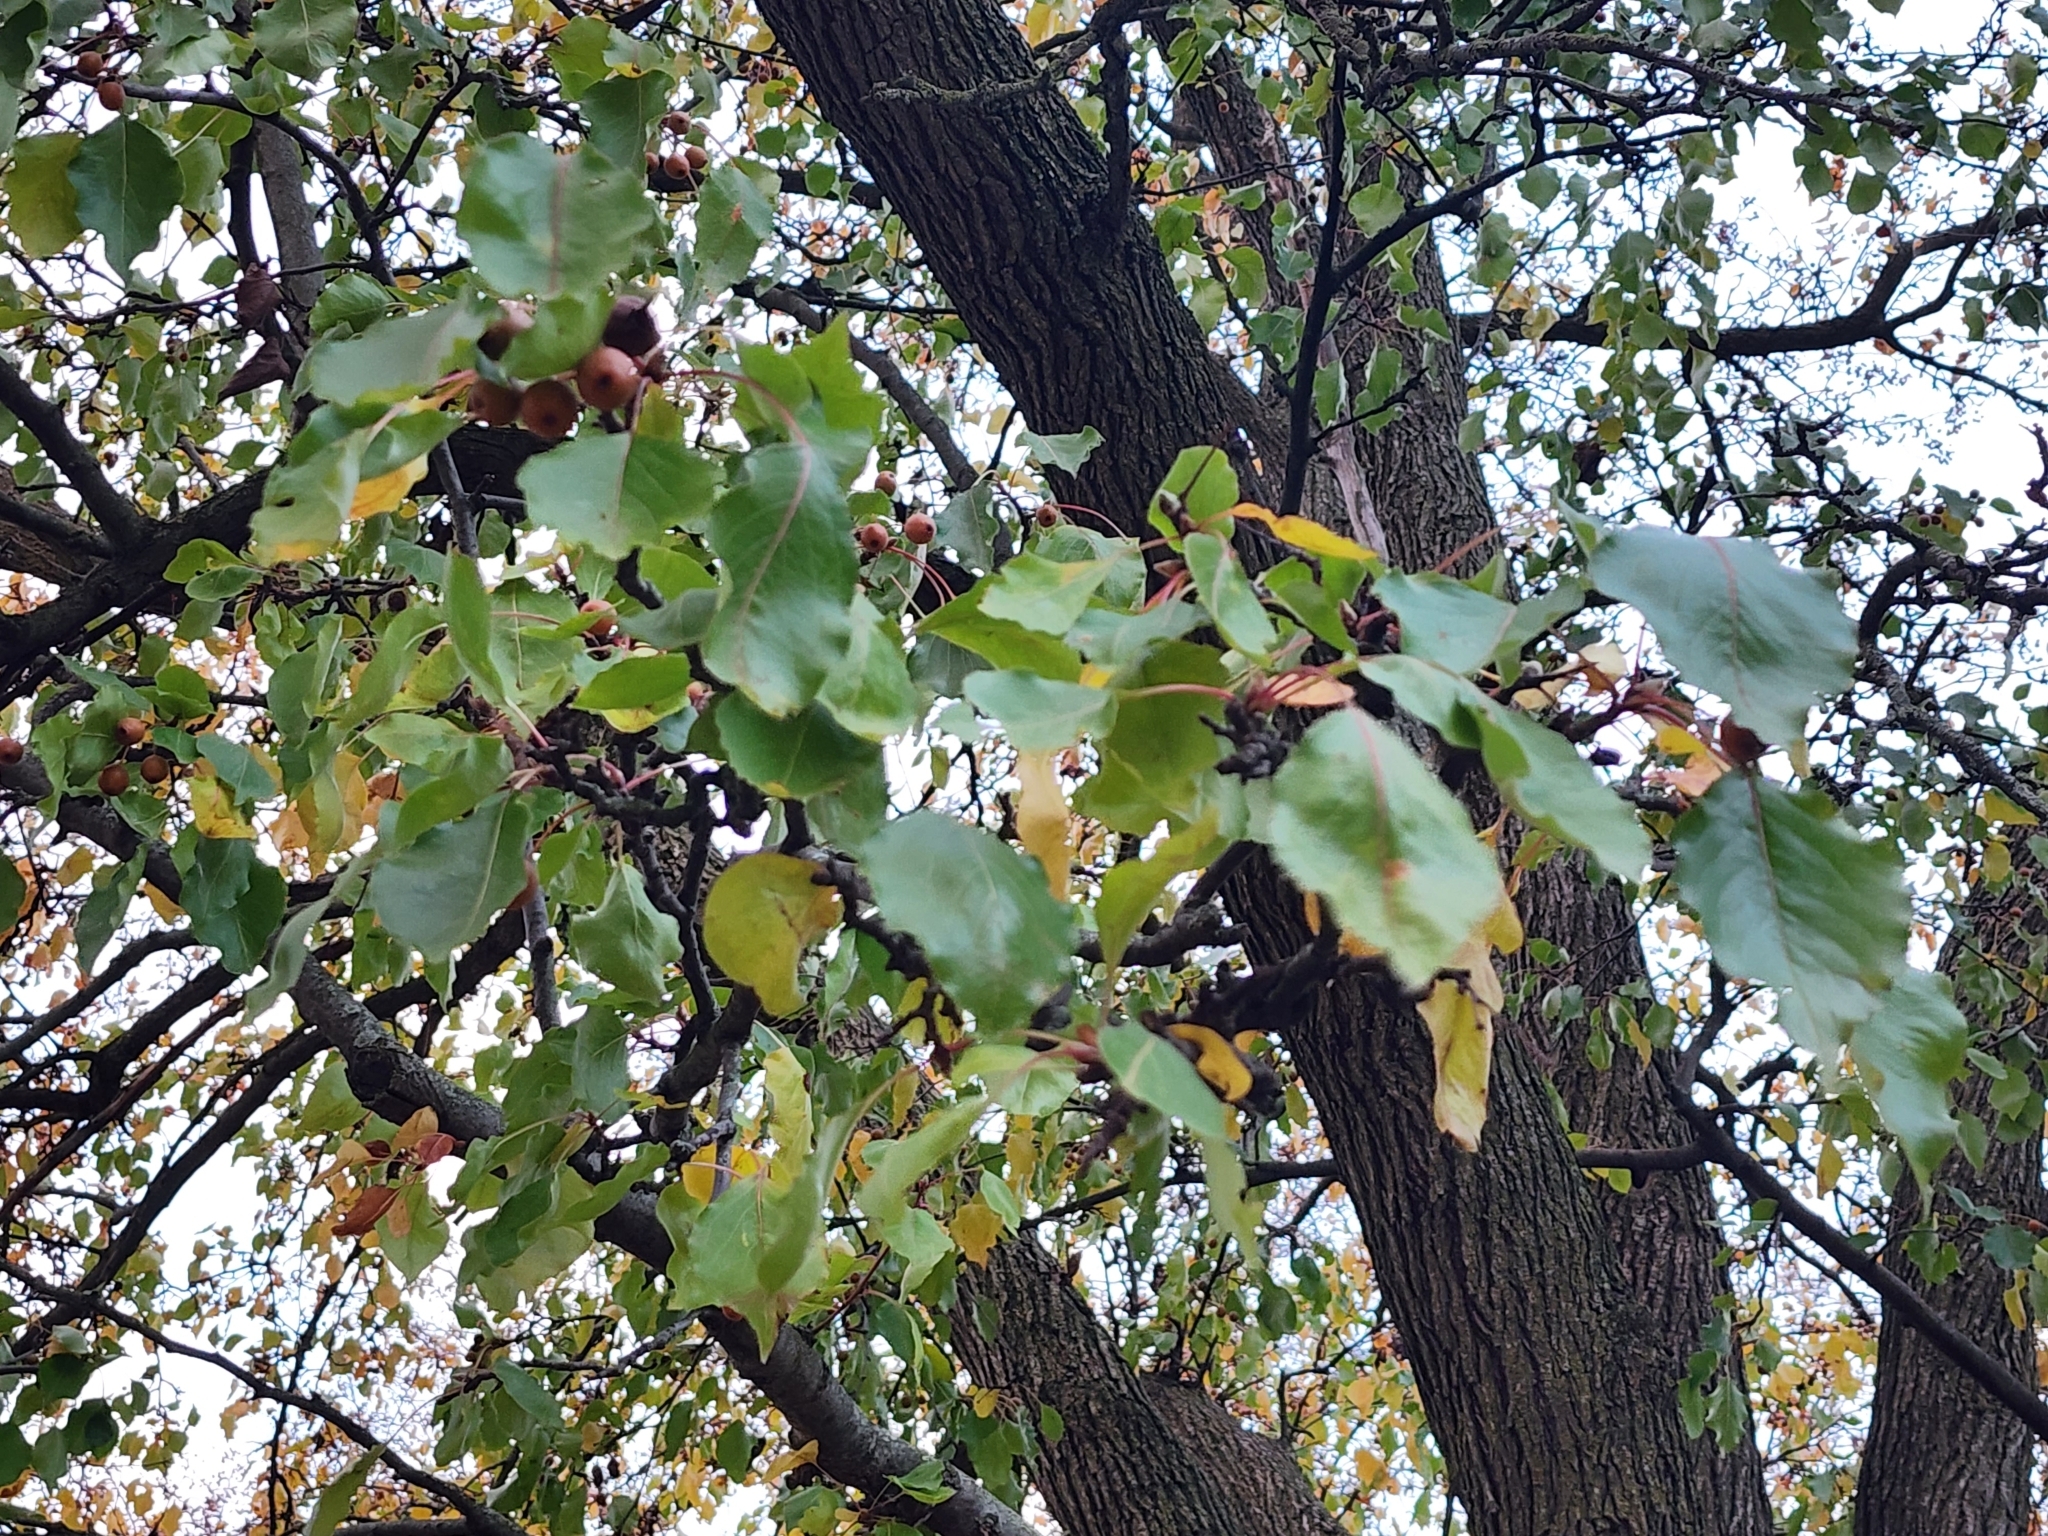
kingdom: Plantae
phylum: Tracheophyta
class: Magnoliopsida
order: Rosales
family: Rosaceae
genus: Pyrus
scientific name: Pyrus calleryana
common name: Callery pear
